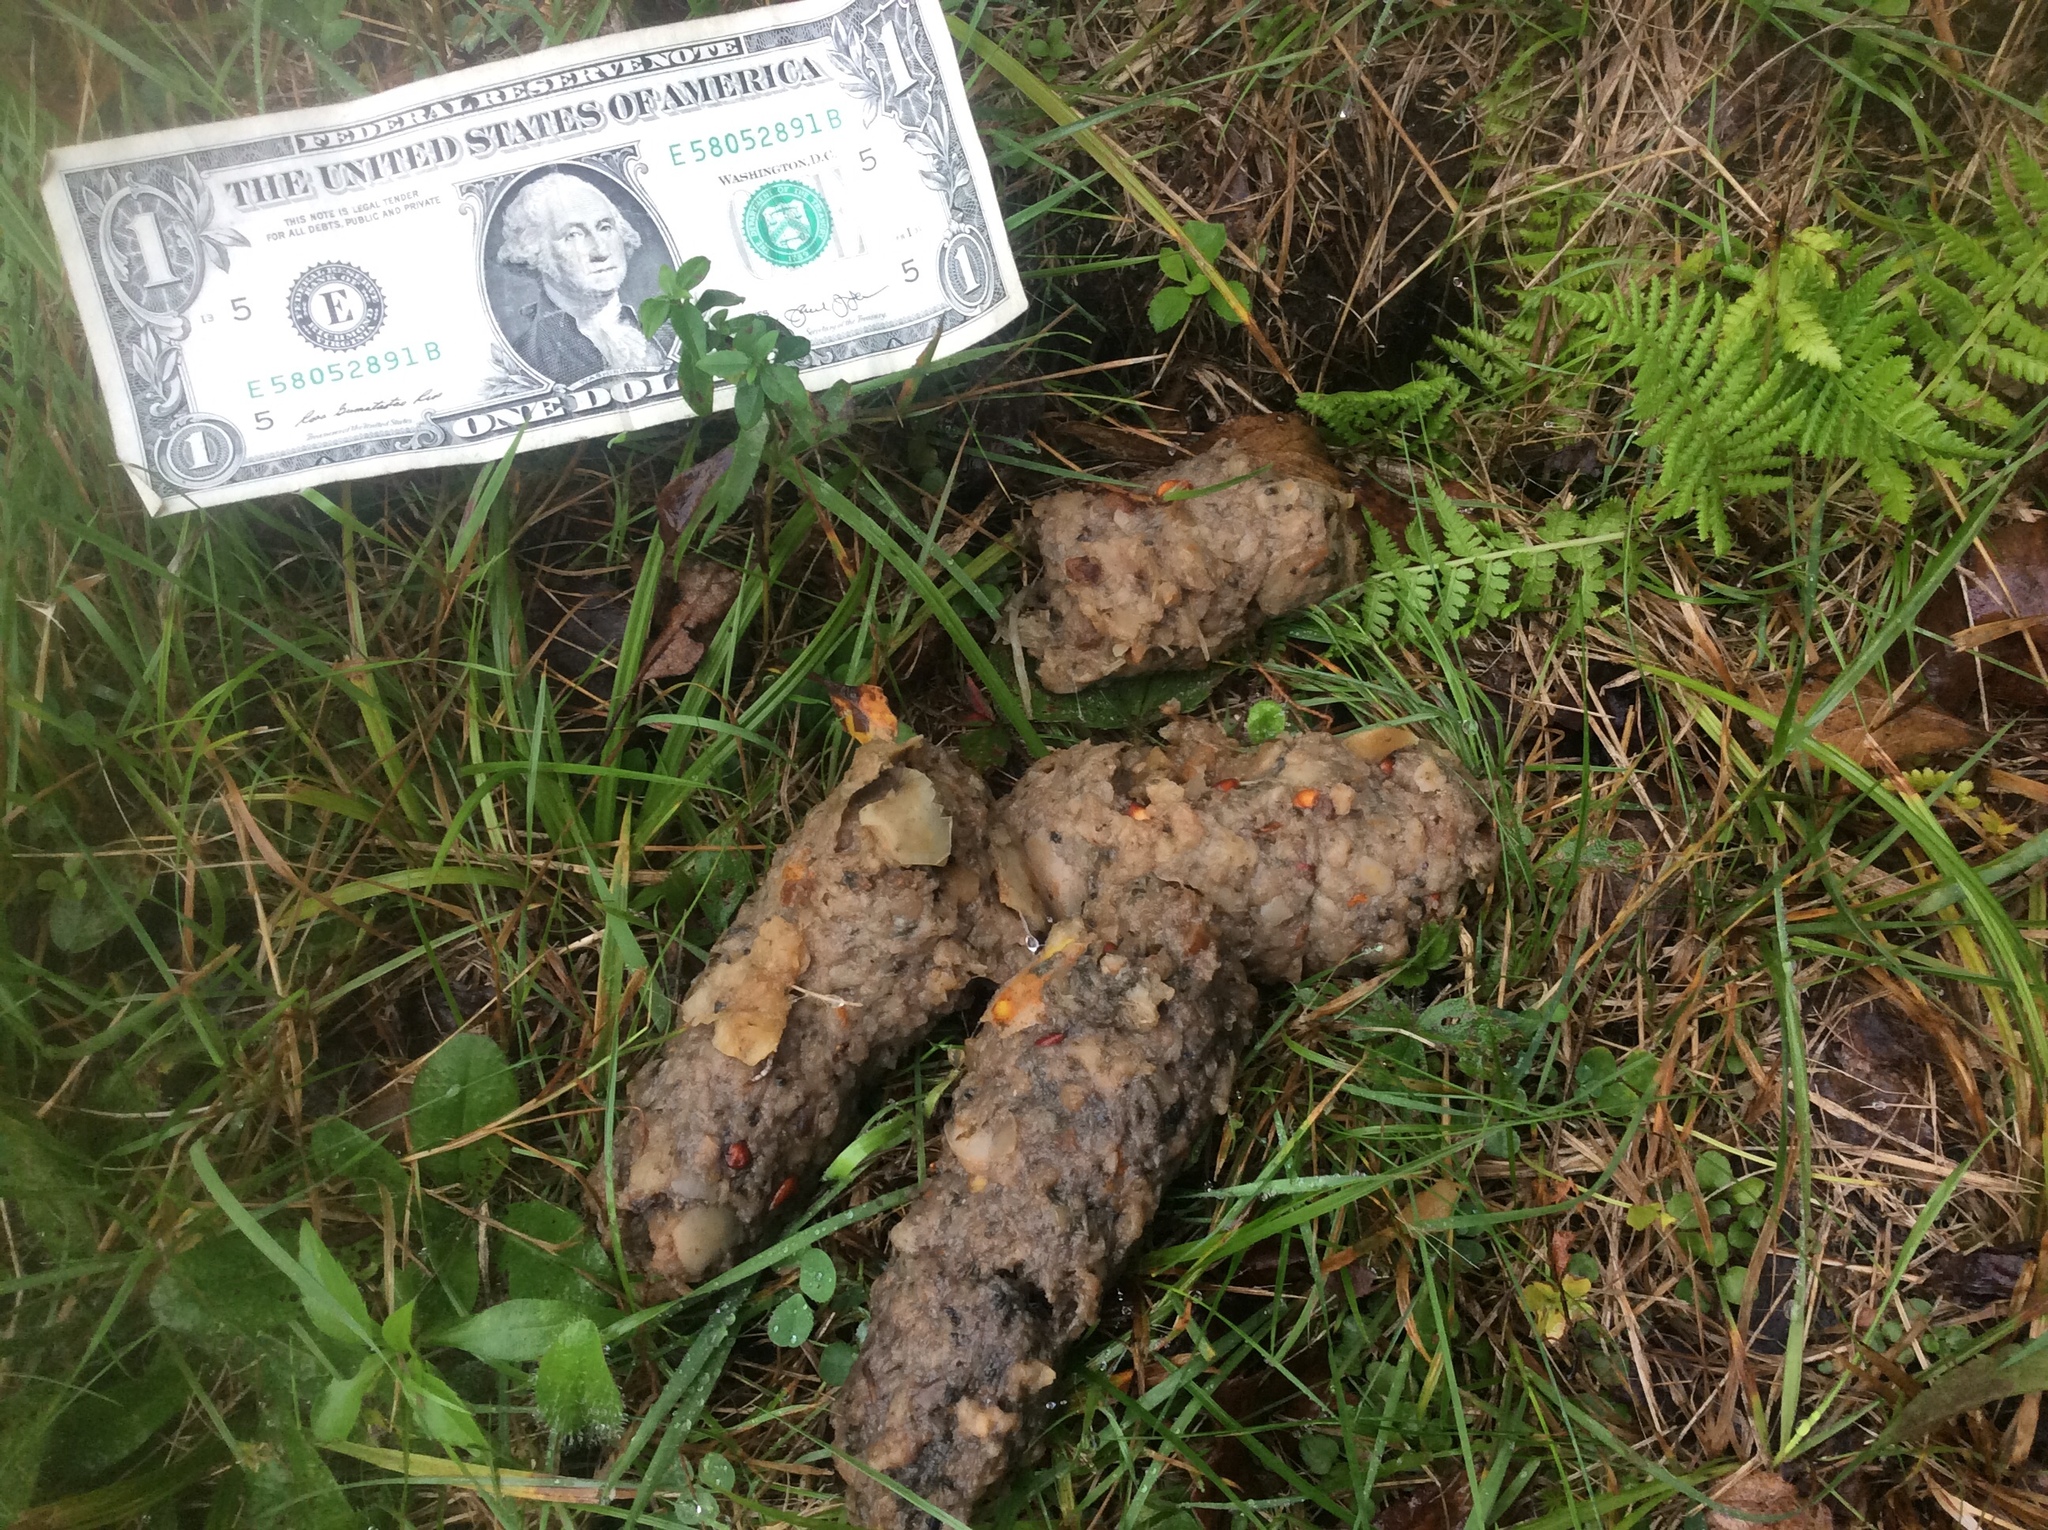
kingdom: Animalia
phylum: Chordata
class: Mammalia
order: Carnivora
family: Ursidae
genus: Ursus
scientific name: Ursus americanus
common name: American black bear
